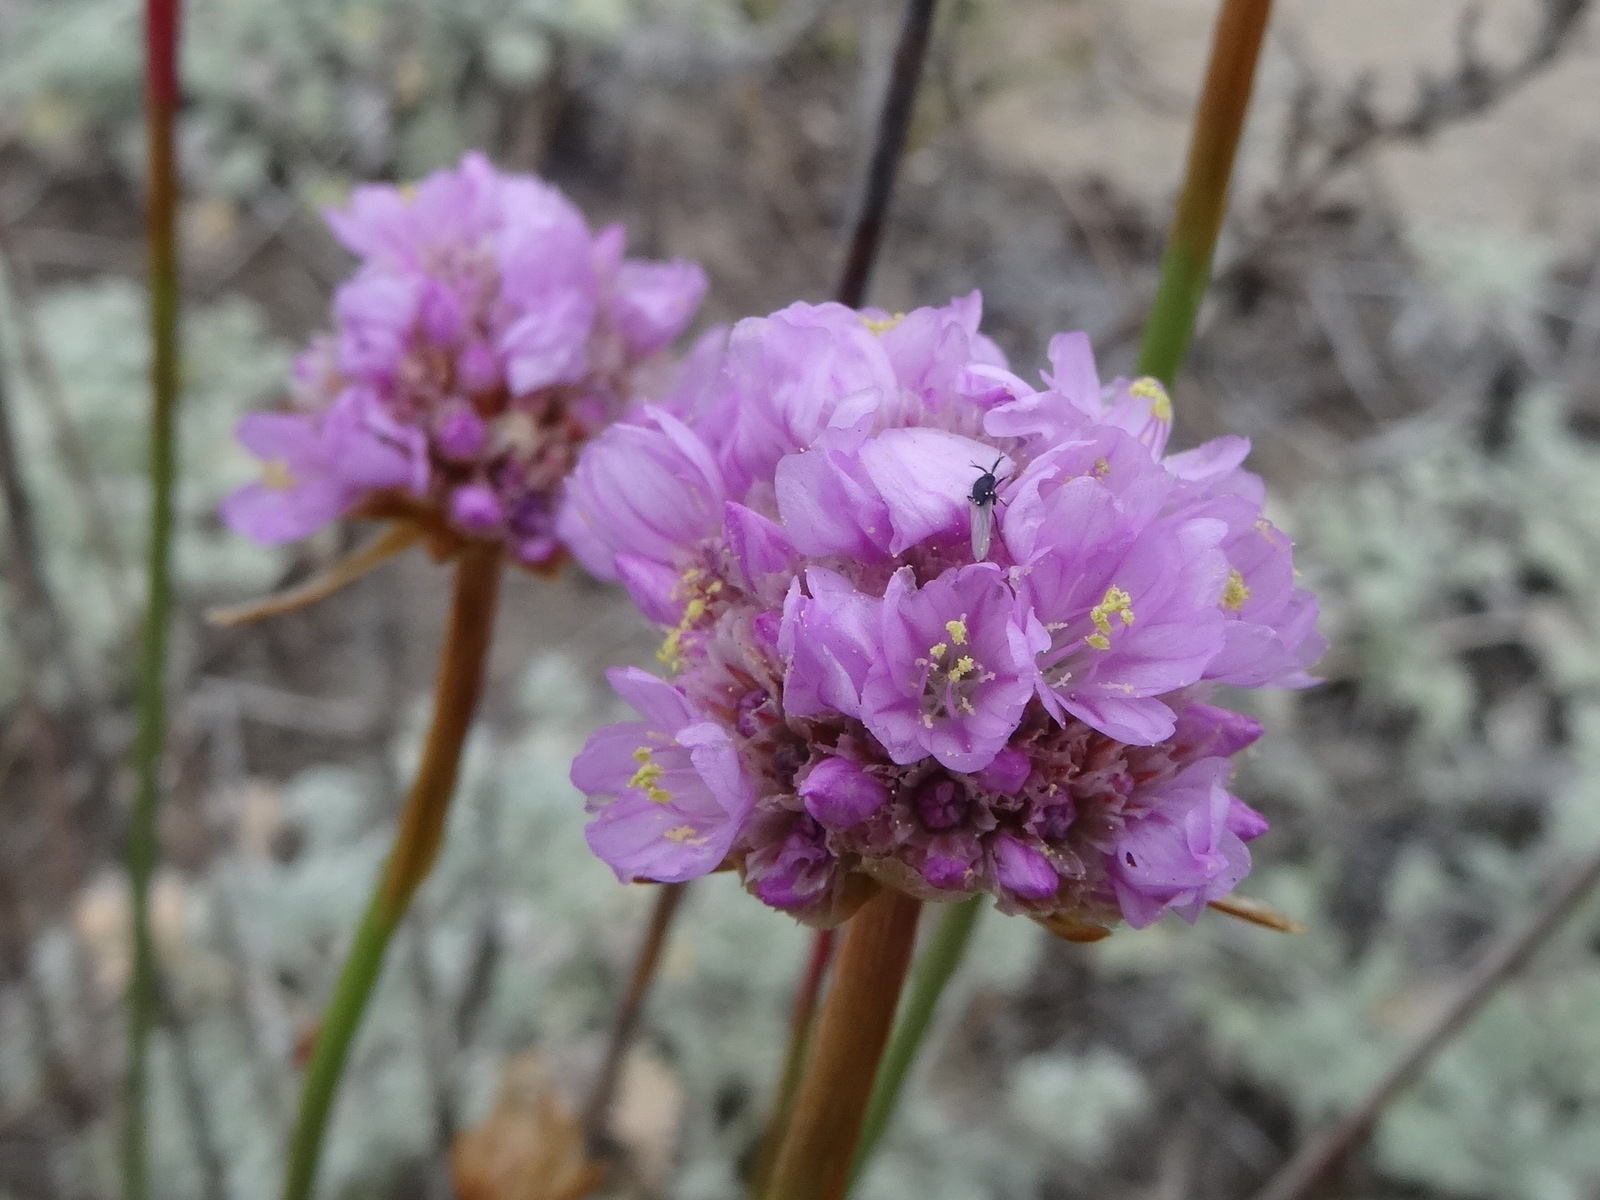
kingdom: Plantae
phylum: Tracheophyta
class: Magnoliopsida
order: Caryophyllales
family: Plumbaginaceae
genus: Armeria
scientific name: Armeria maritima
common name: Thrift
